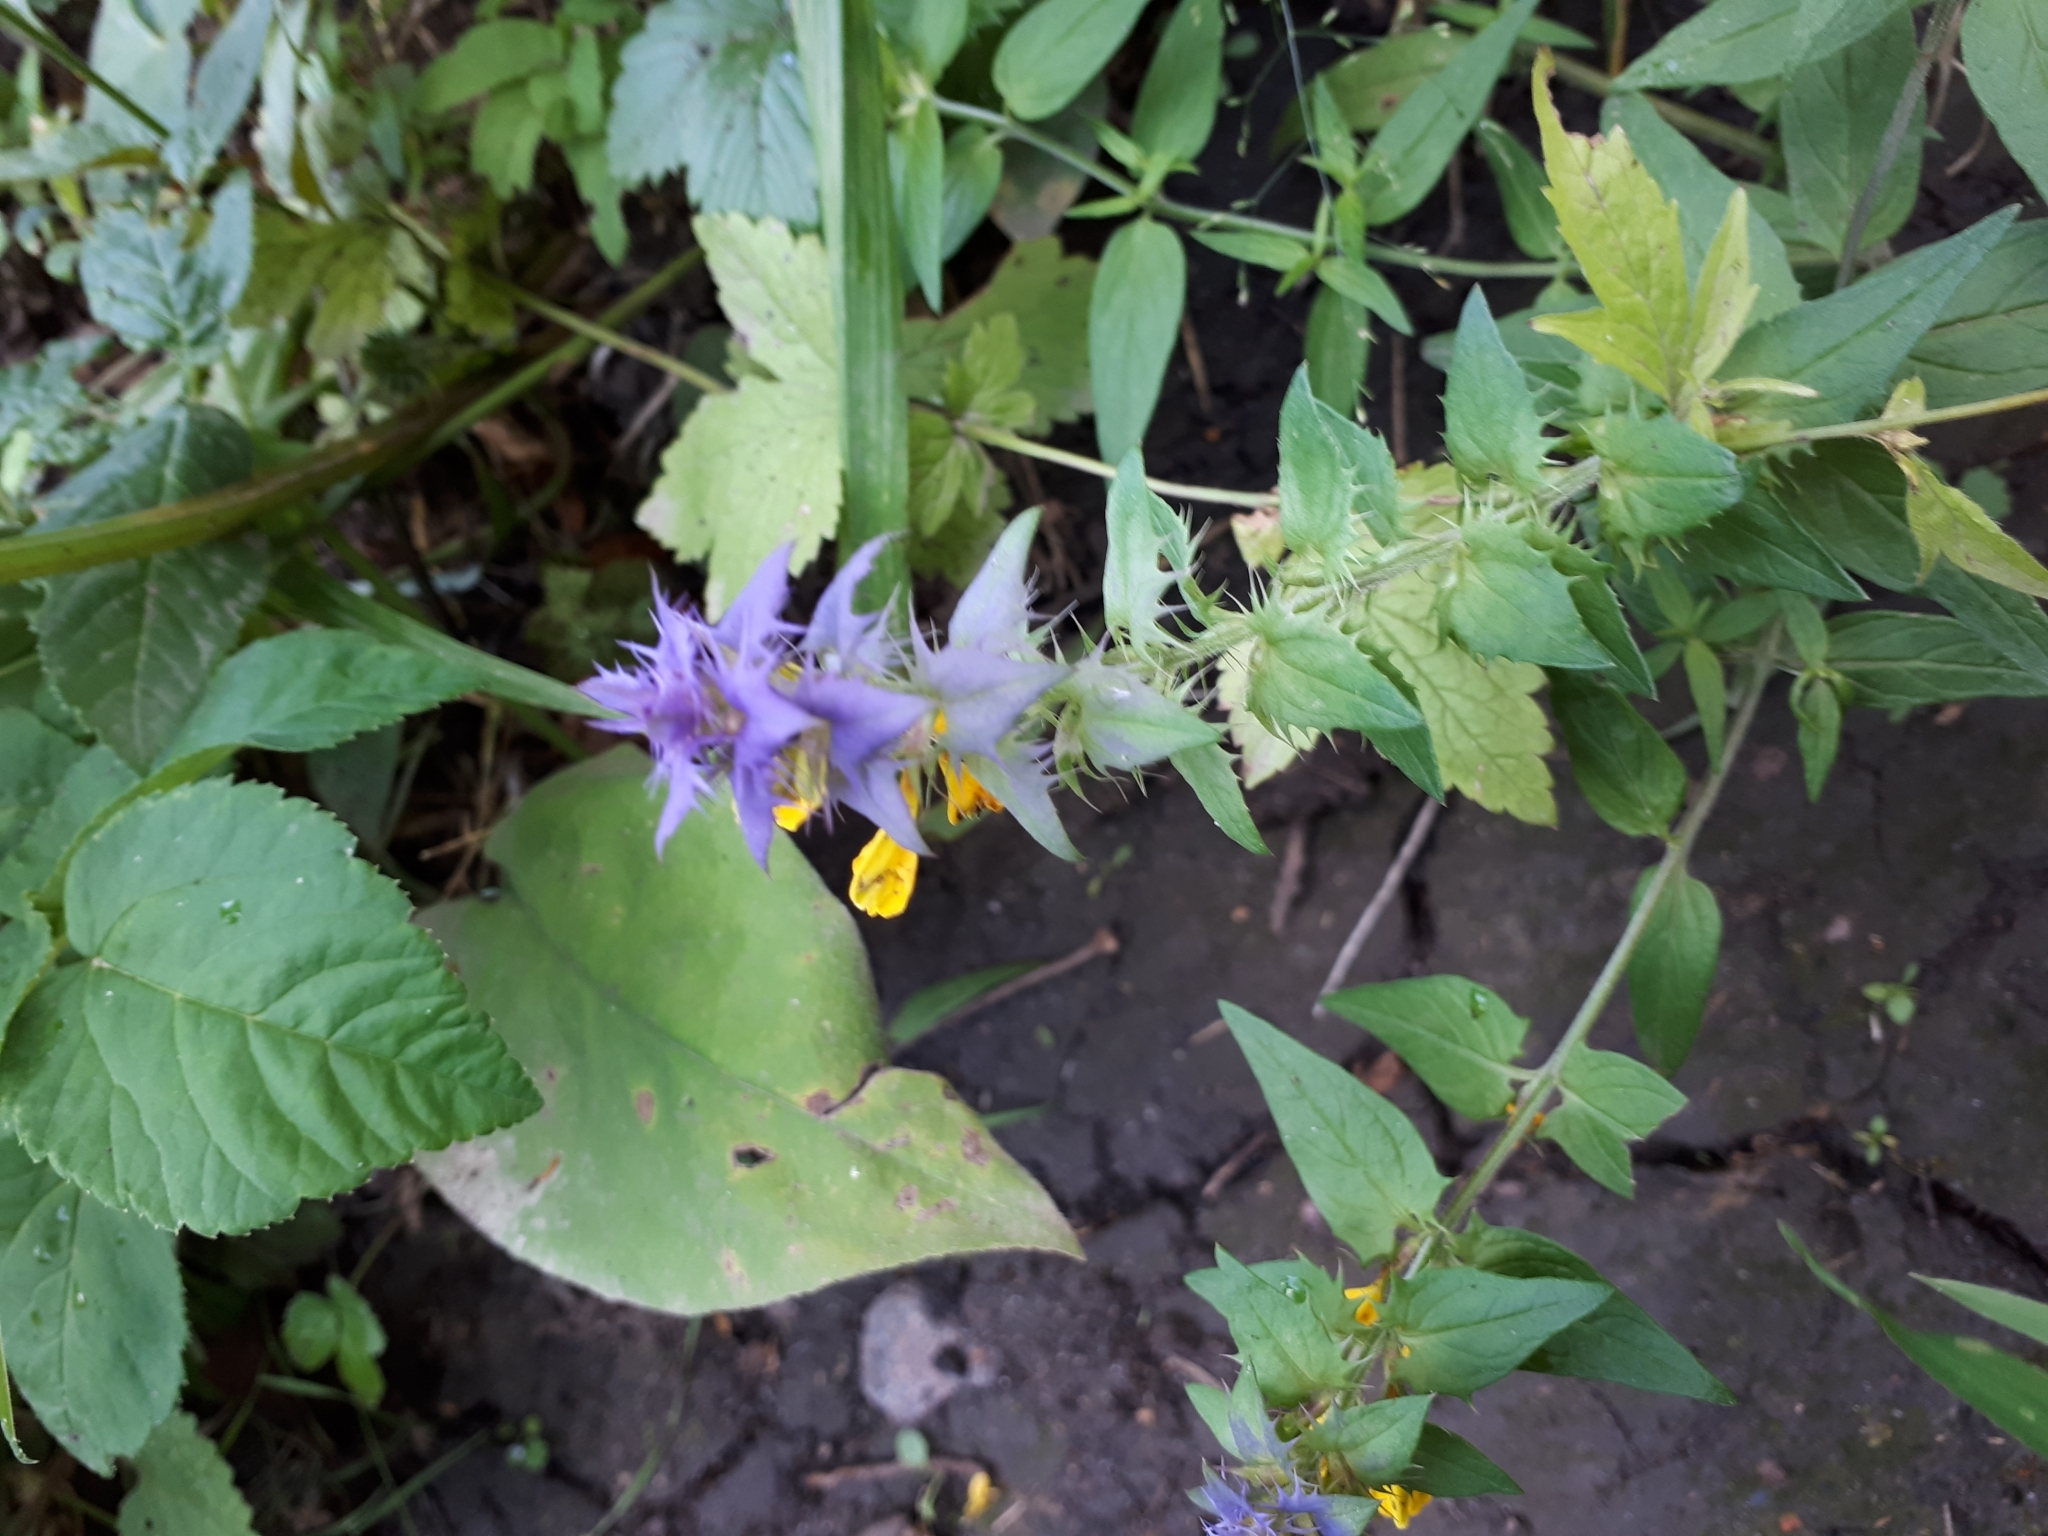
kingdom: Plantae
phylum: Tracheophyta
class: Magnoliopsida
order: Lamiales
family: Orobanchaceae
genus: Melampyrum
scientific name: Melampyrum nemorosum
